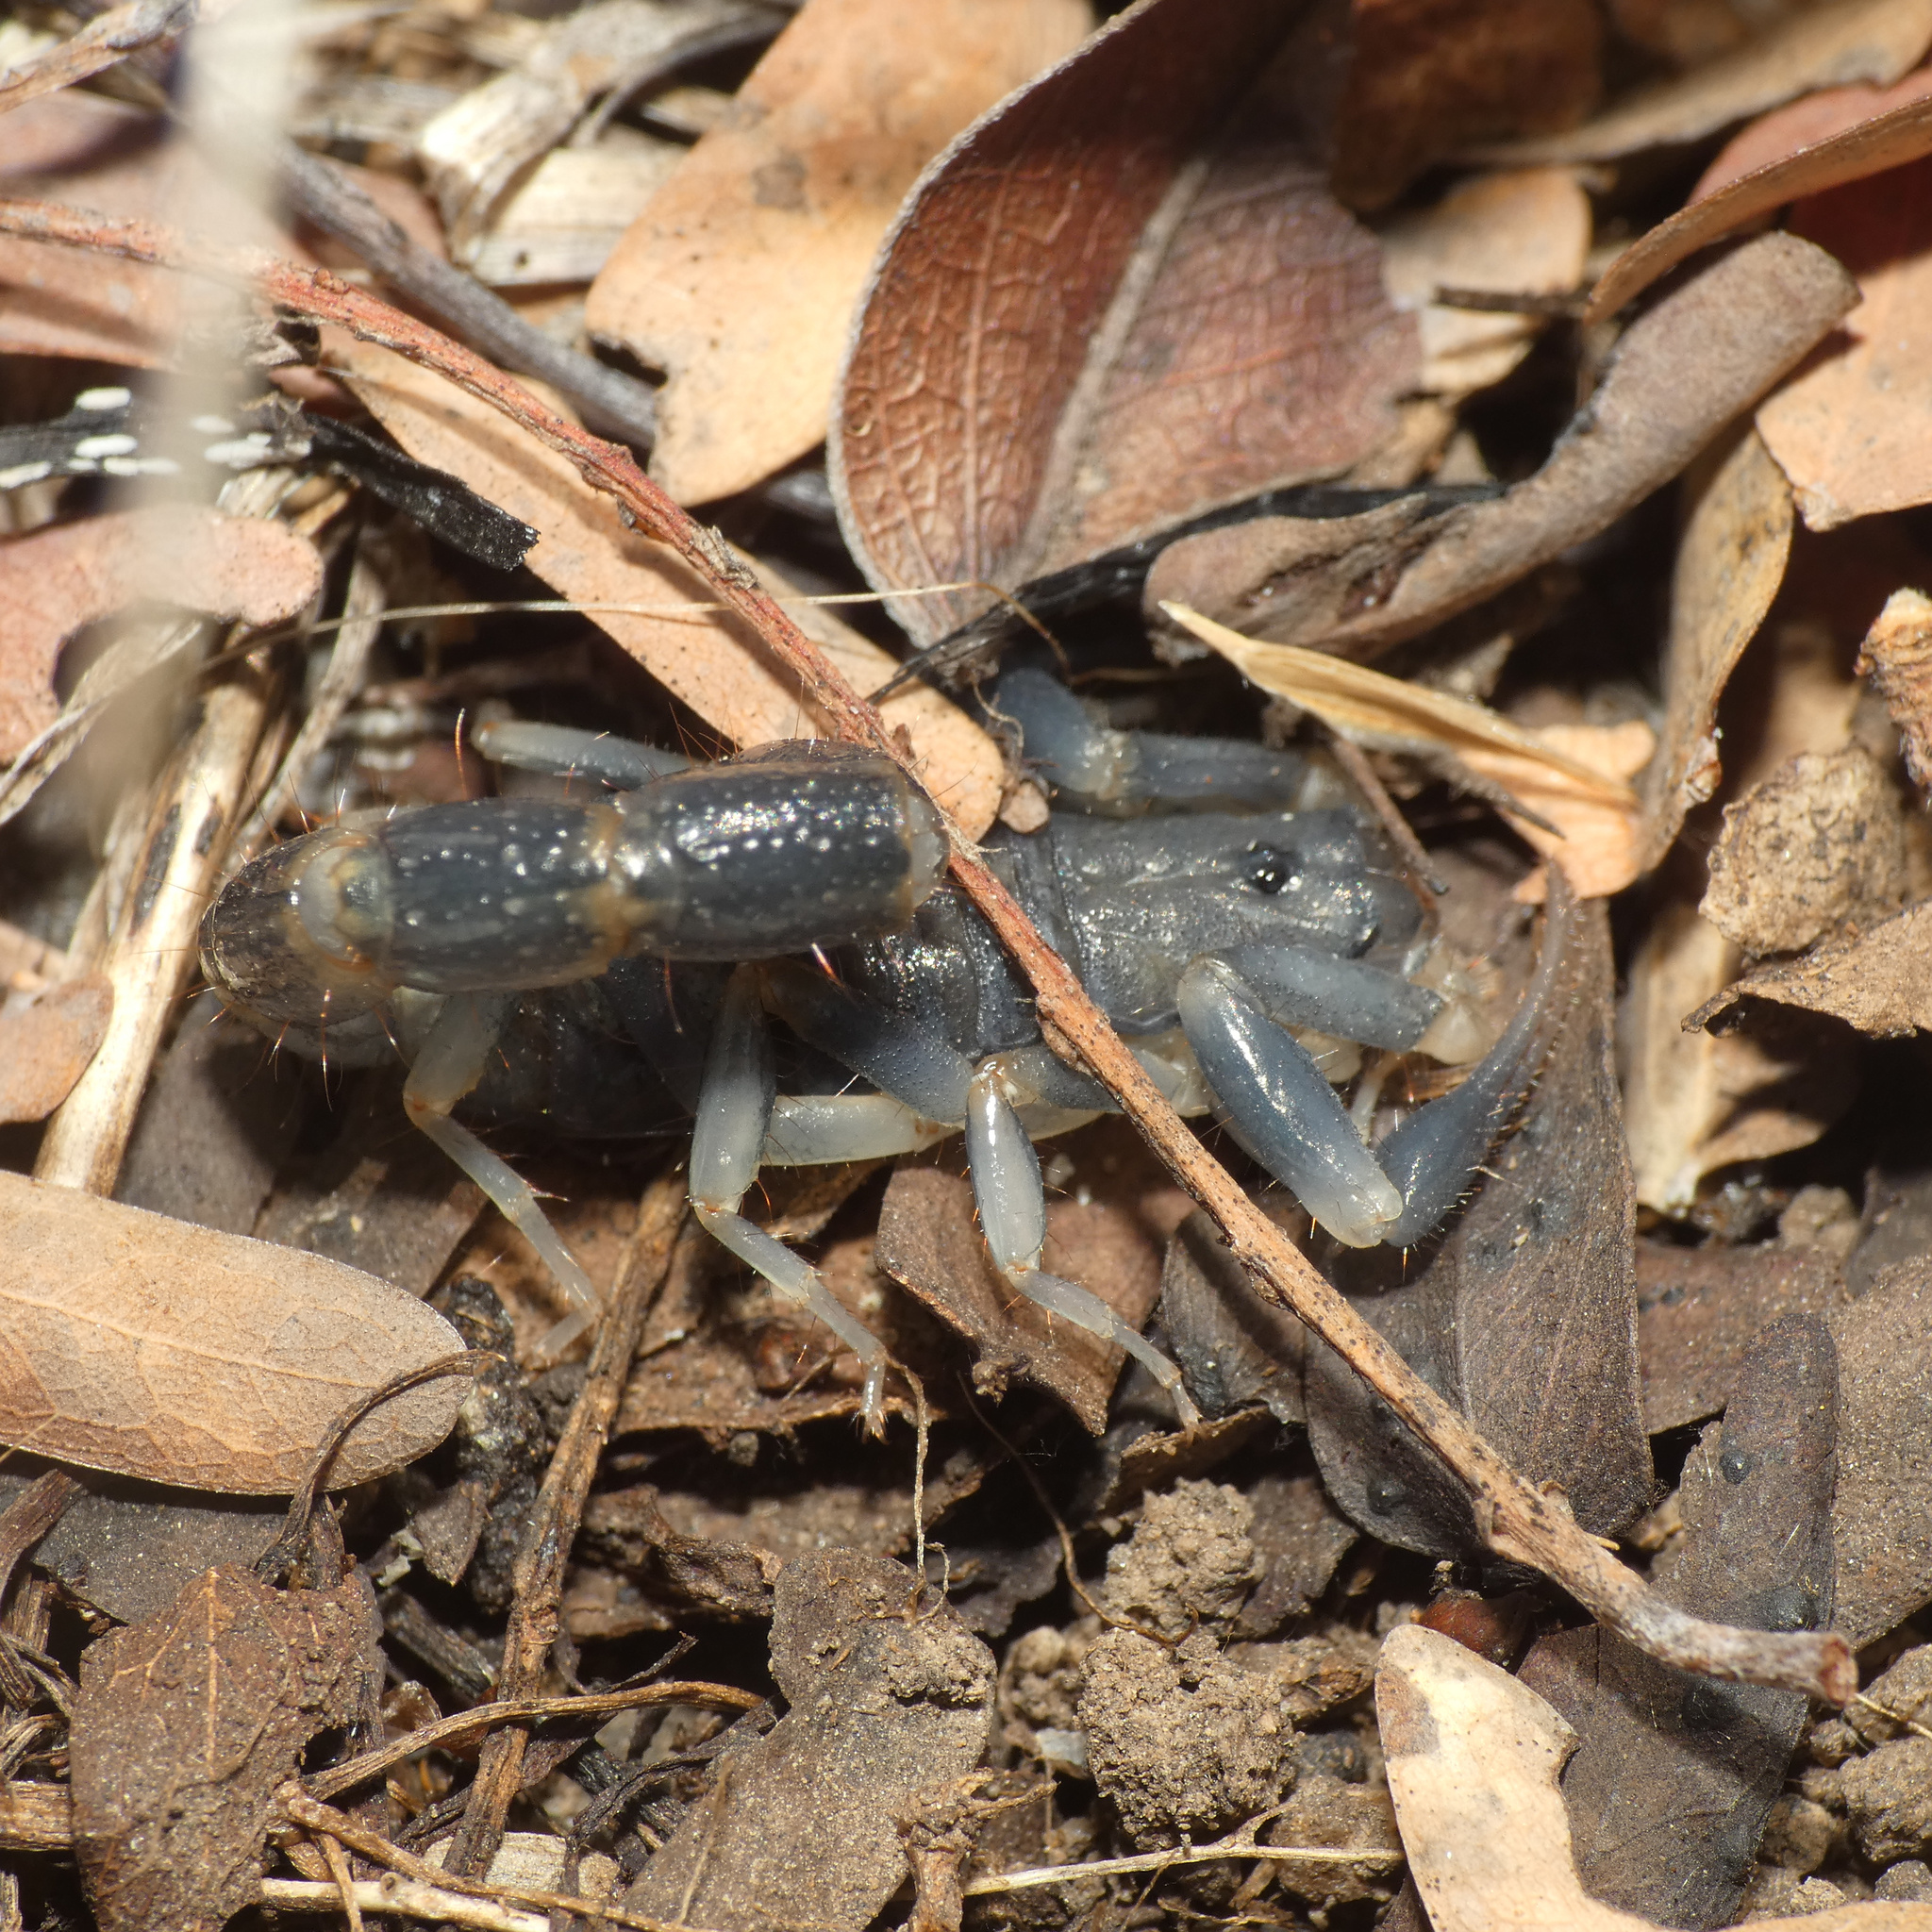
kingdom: Animalia
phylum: Arthropoda
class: Arachnida
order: Scorpiones
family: Buthidae
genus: Uroplectes
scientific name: Uroplectes flavoviridis
